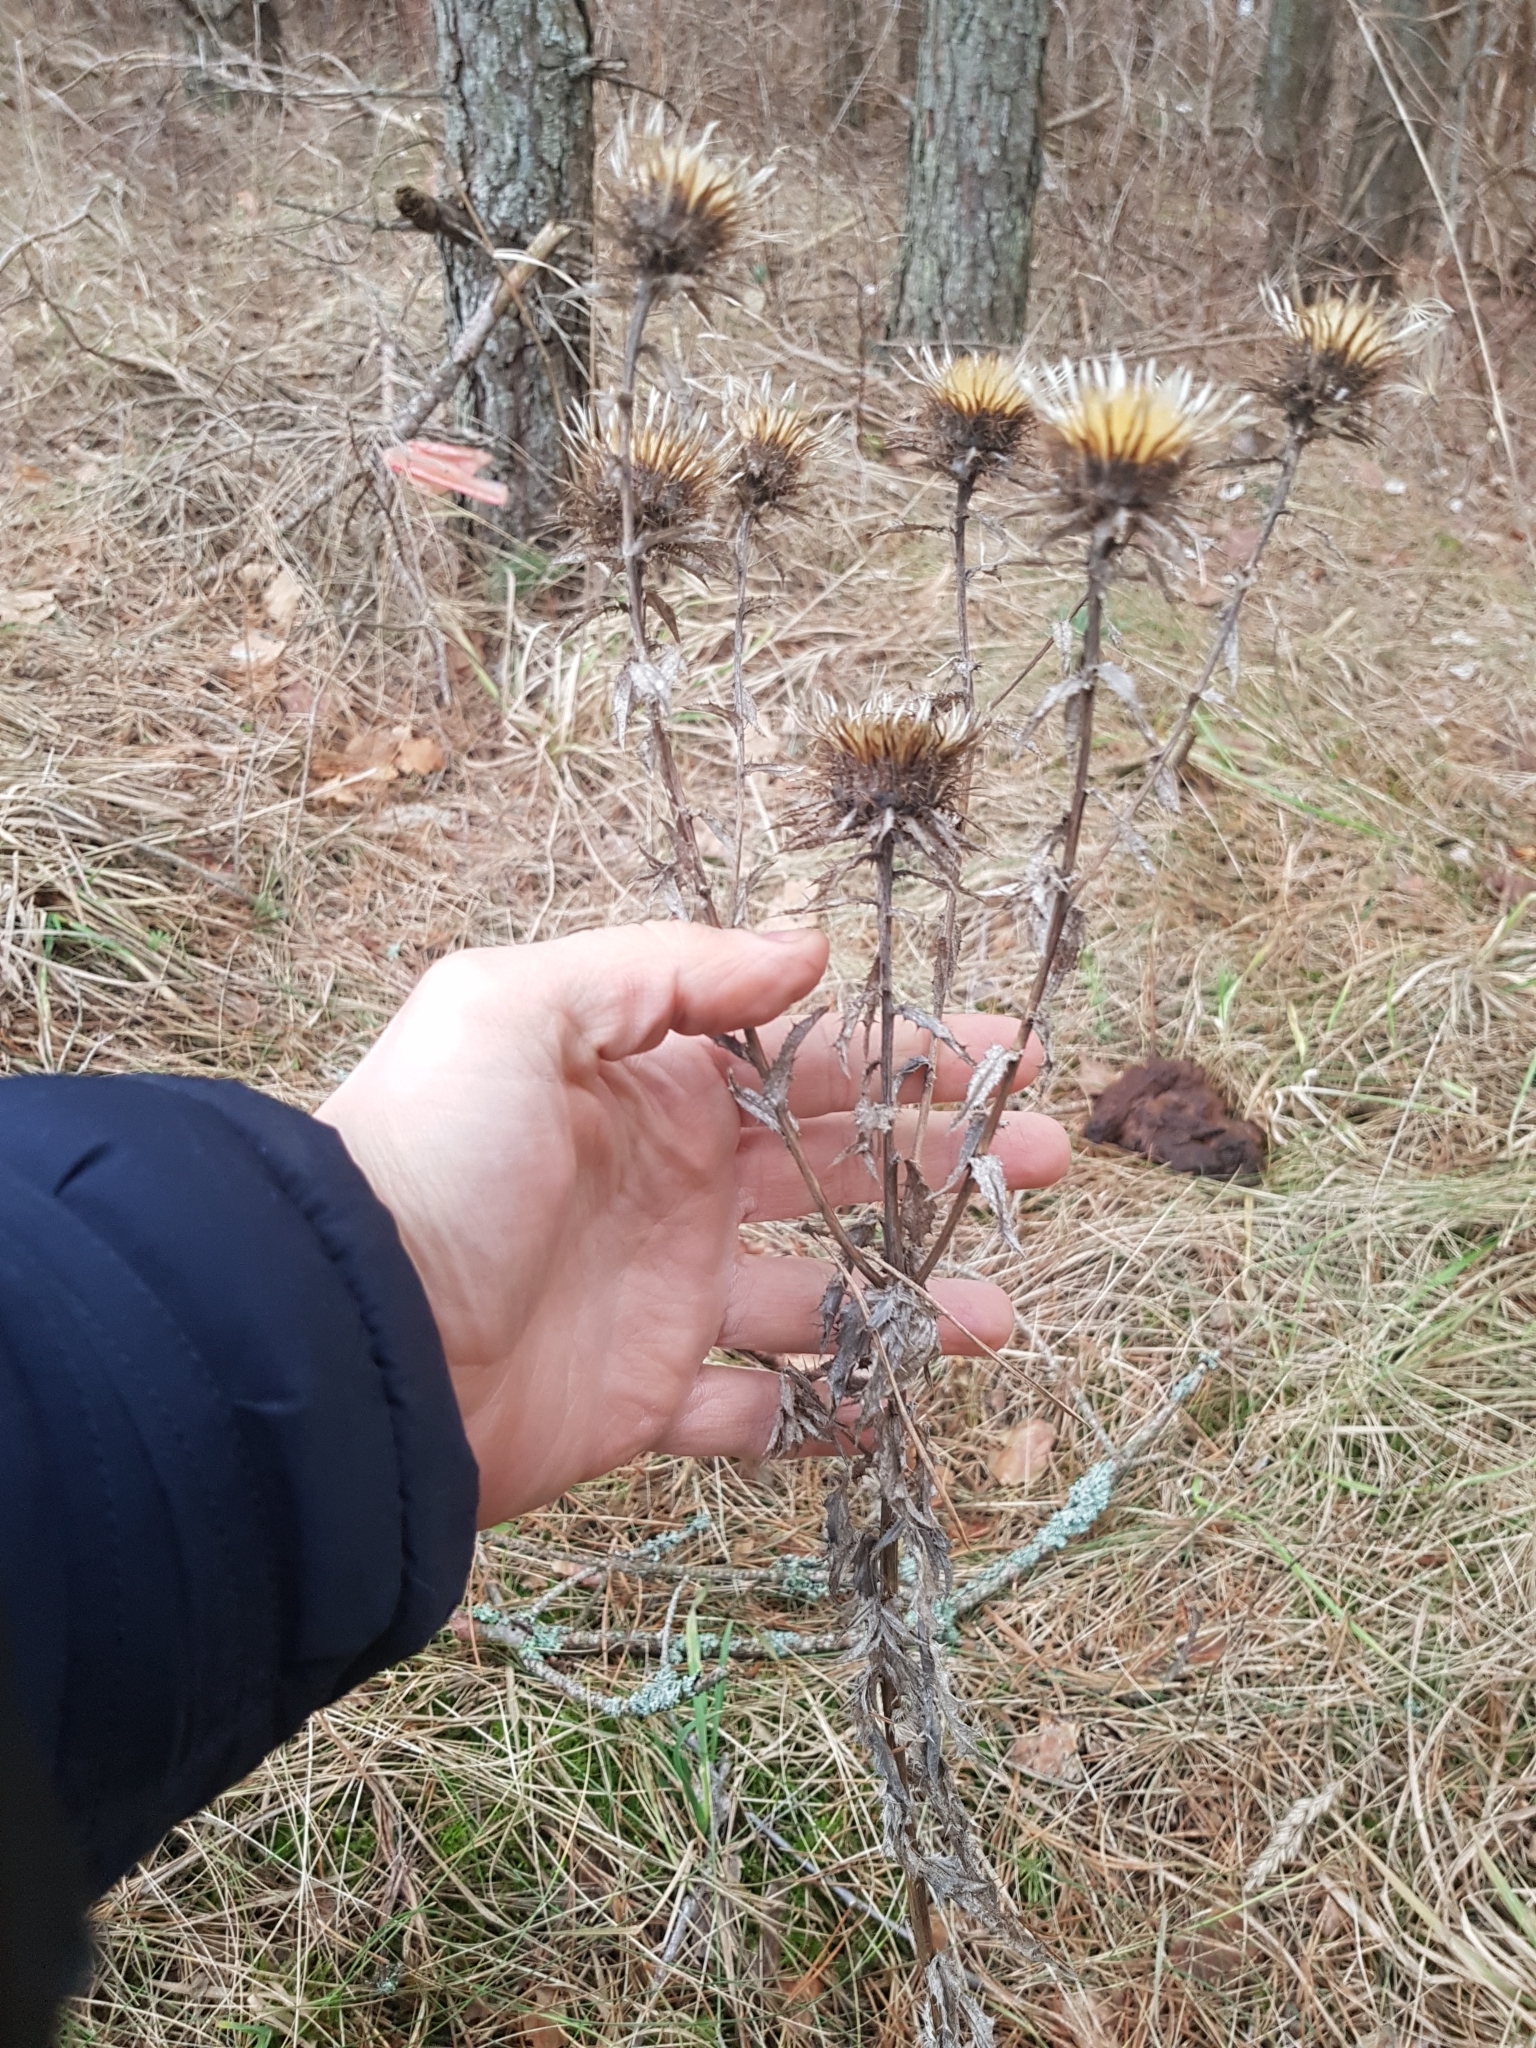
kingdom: Plantae
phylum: Tracheophyta
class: Magnoliopsida
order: Asterales
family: Asteraceae
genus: Carlina
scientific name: Carlina vulgaris
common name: Carline thistle
